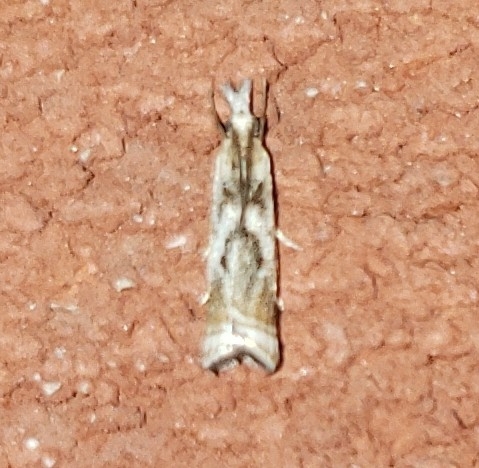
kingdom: Animalia
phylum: Arthropoda
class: Insecta
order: Lepidoptera
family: Crambidae
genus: Microcrambus
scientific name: Microcrambus elegans
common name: Elegant grass-veneer
